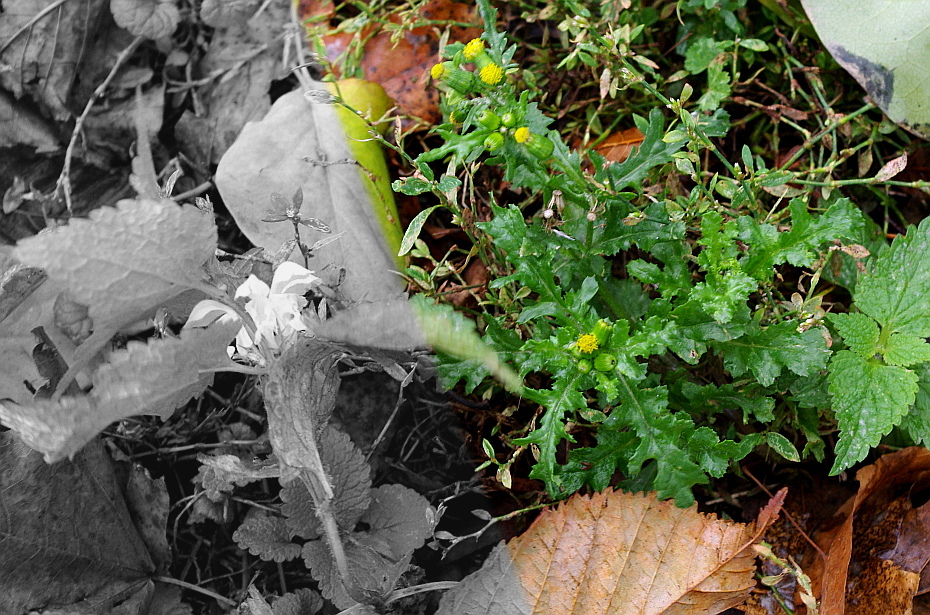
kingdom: Plantae
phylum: Tracheophyta
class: Magnoliopsida
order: Asterales
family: Asteraceae
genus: Senecio
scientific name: Senecio vulgaris
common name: Old-man-in-the-spring
